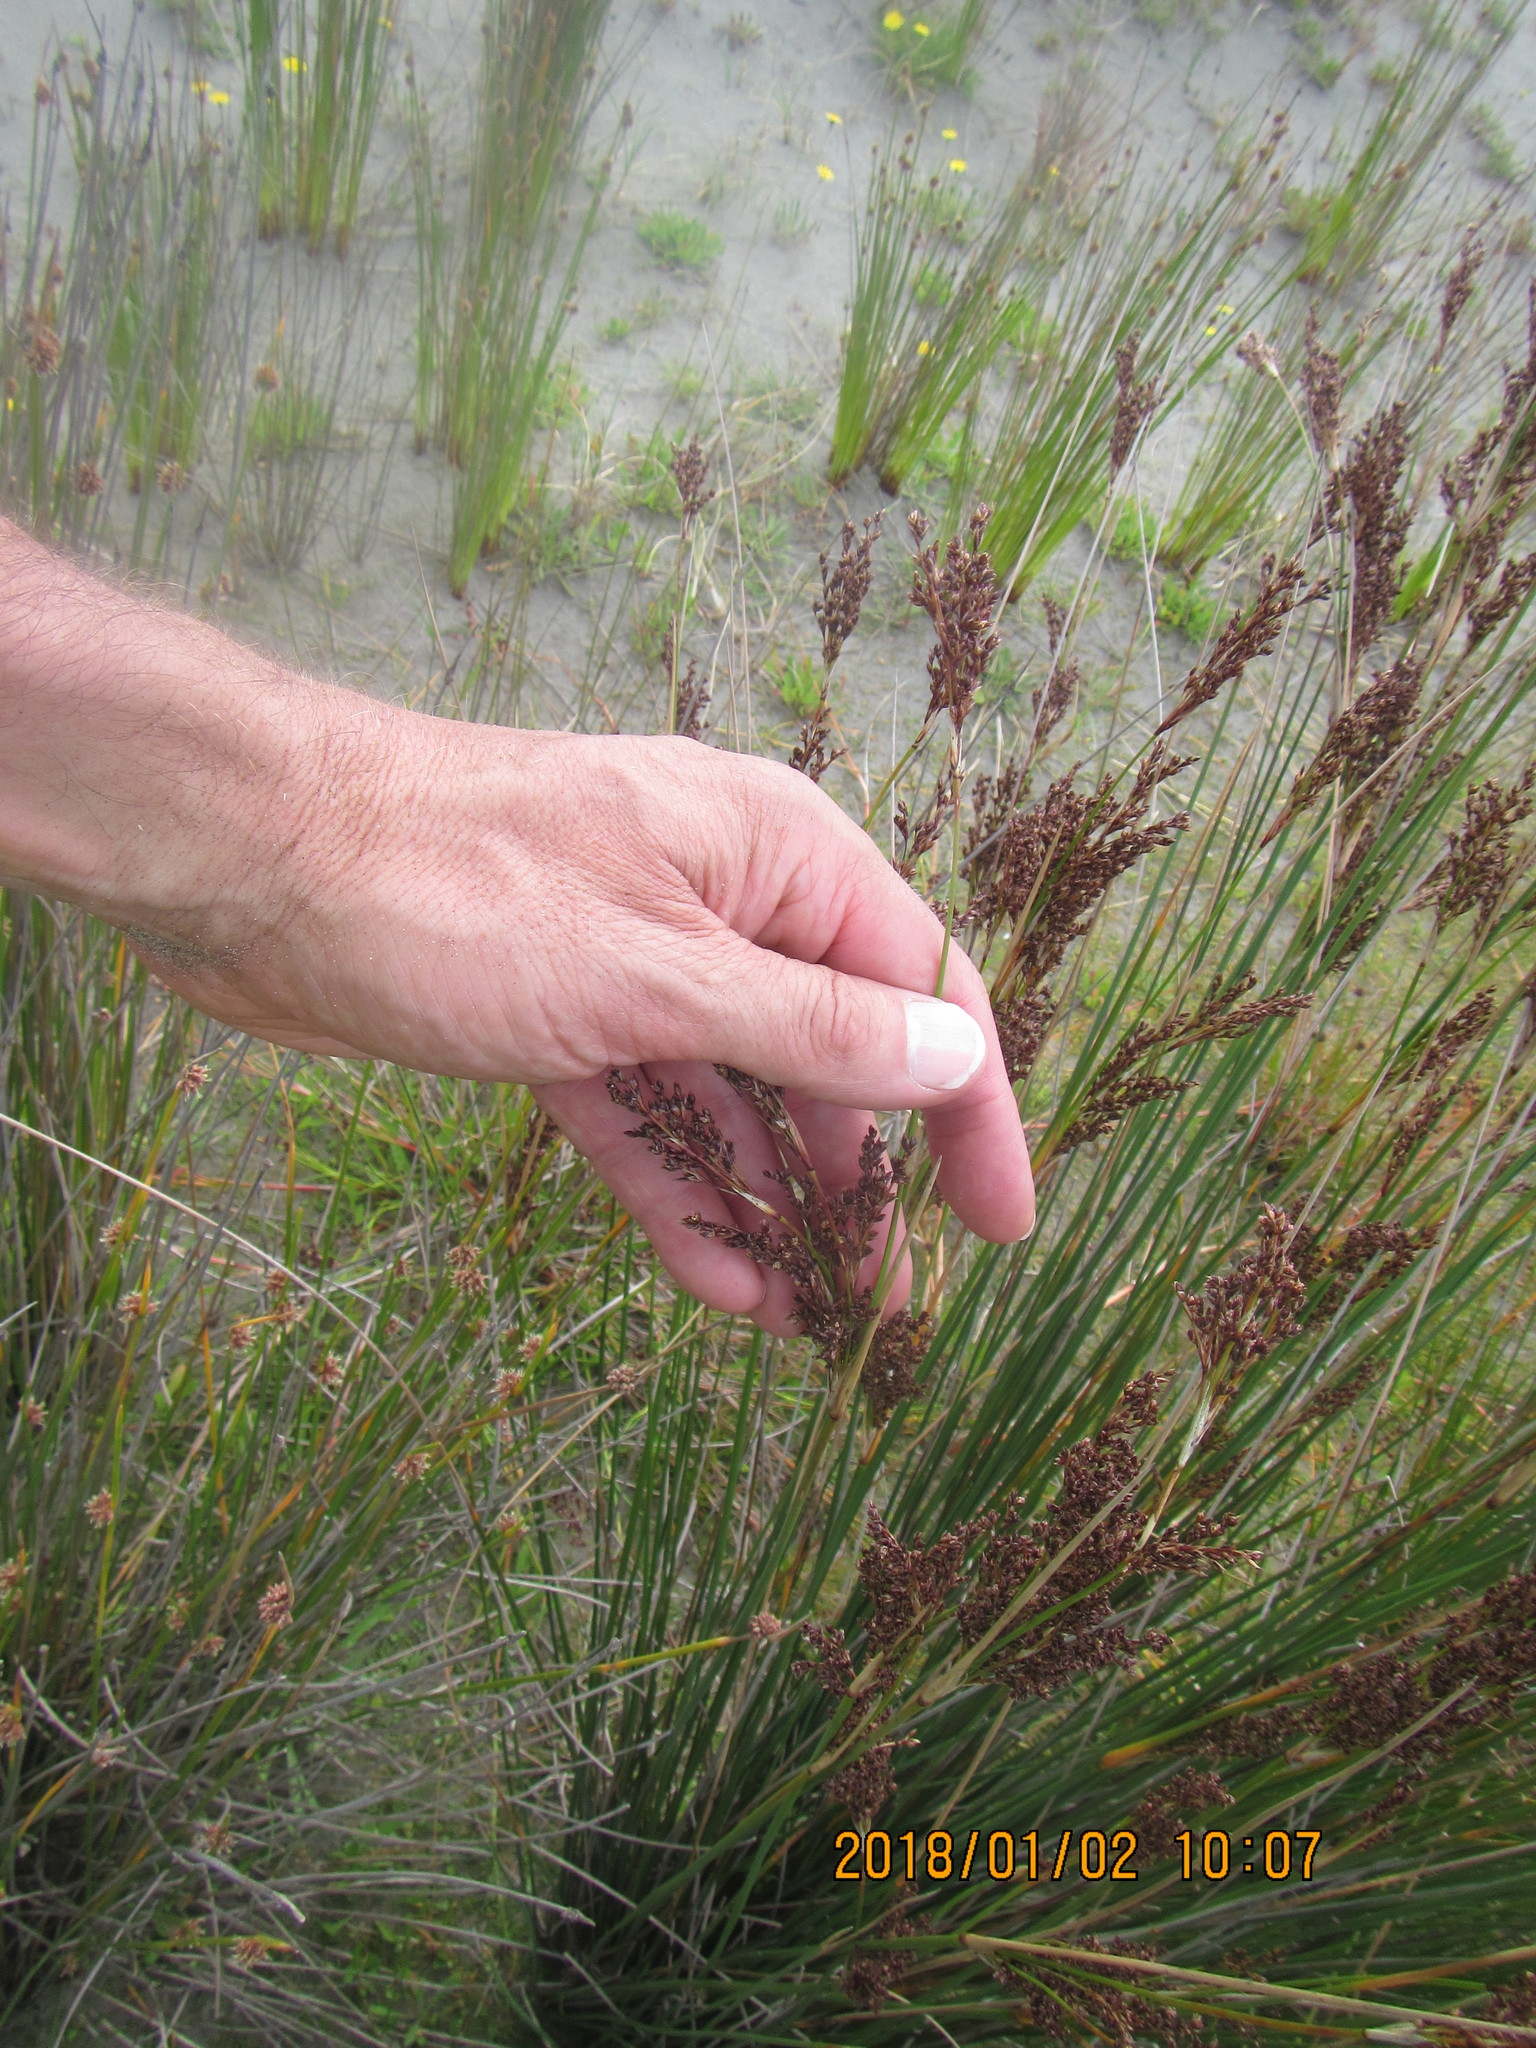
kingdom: Plantae
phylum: Tracheophyta
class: Liliopsida
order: Poales
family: Juncaceae
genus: Juncus
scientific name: Juncus kraussii
